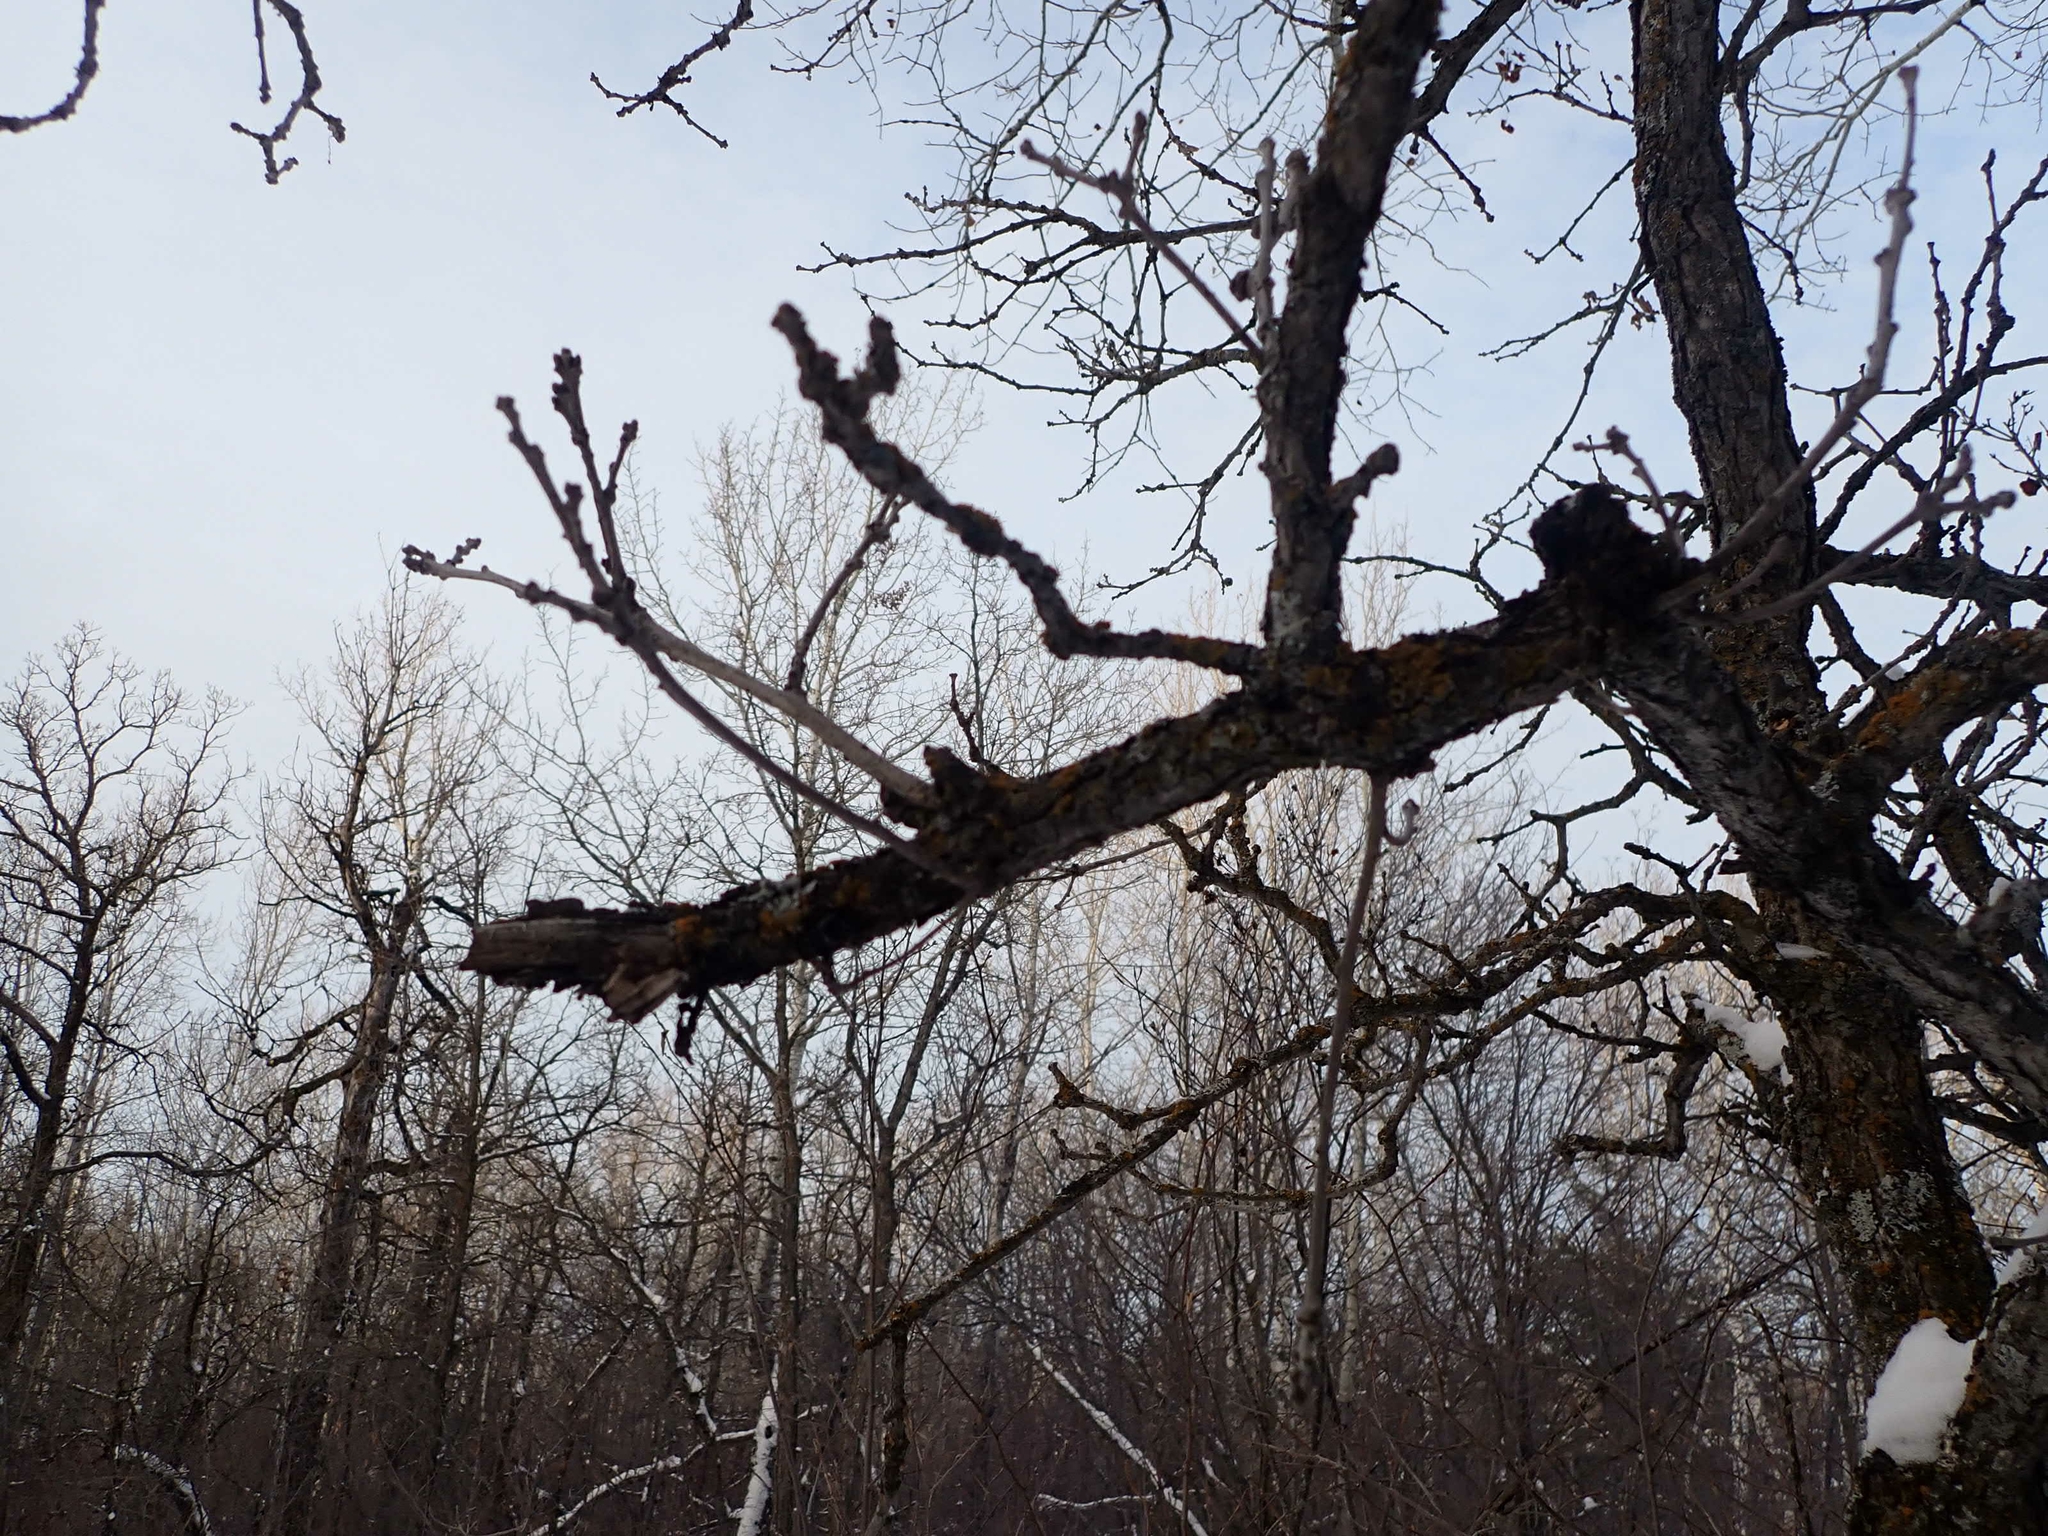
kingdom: Plantae
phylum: Tracheophyta
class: Magnoliopsida
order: Fagales
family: Fagaceae
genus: Quercus
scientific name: Quercus macrocarpa
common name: Bur oak
